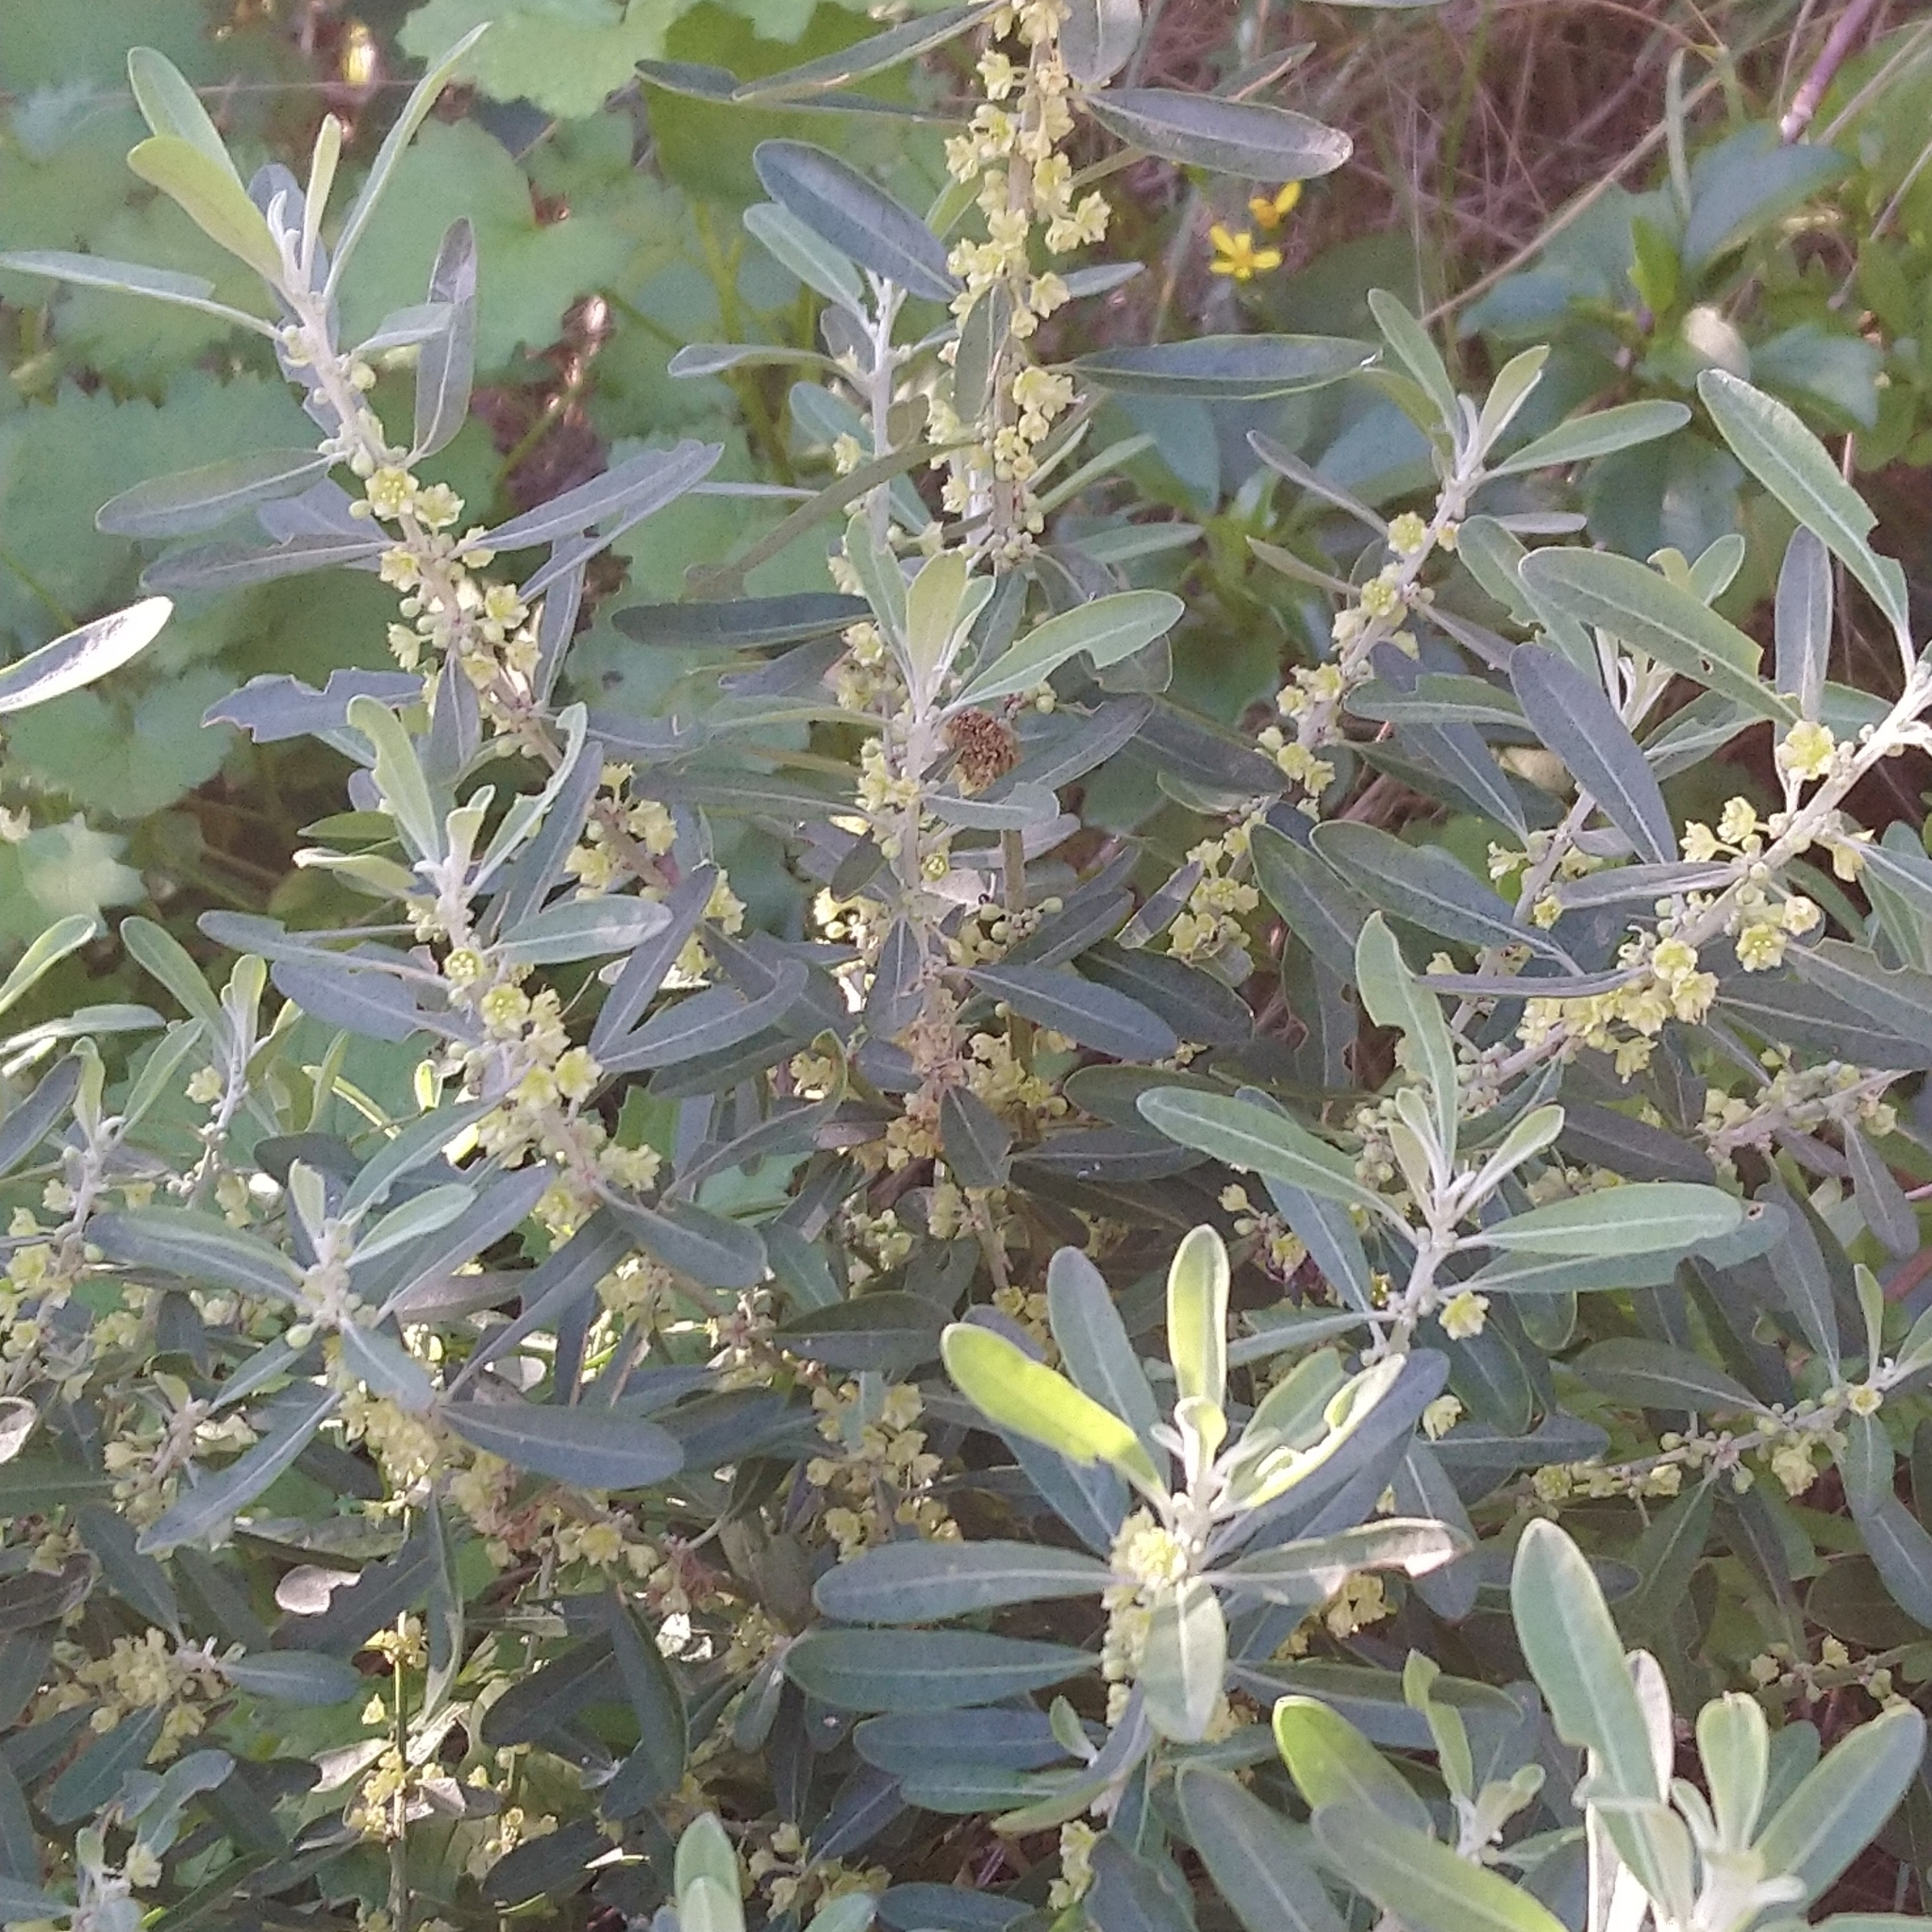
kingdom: Plantae
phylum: Tracheophyta
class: Magnoliopsida
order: Malpighiales
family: Peraceae
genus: Clutia
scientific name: Clutia daphnoides
